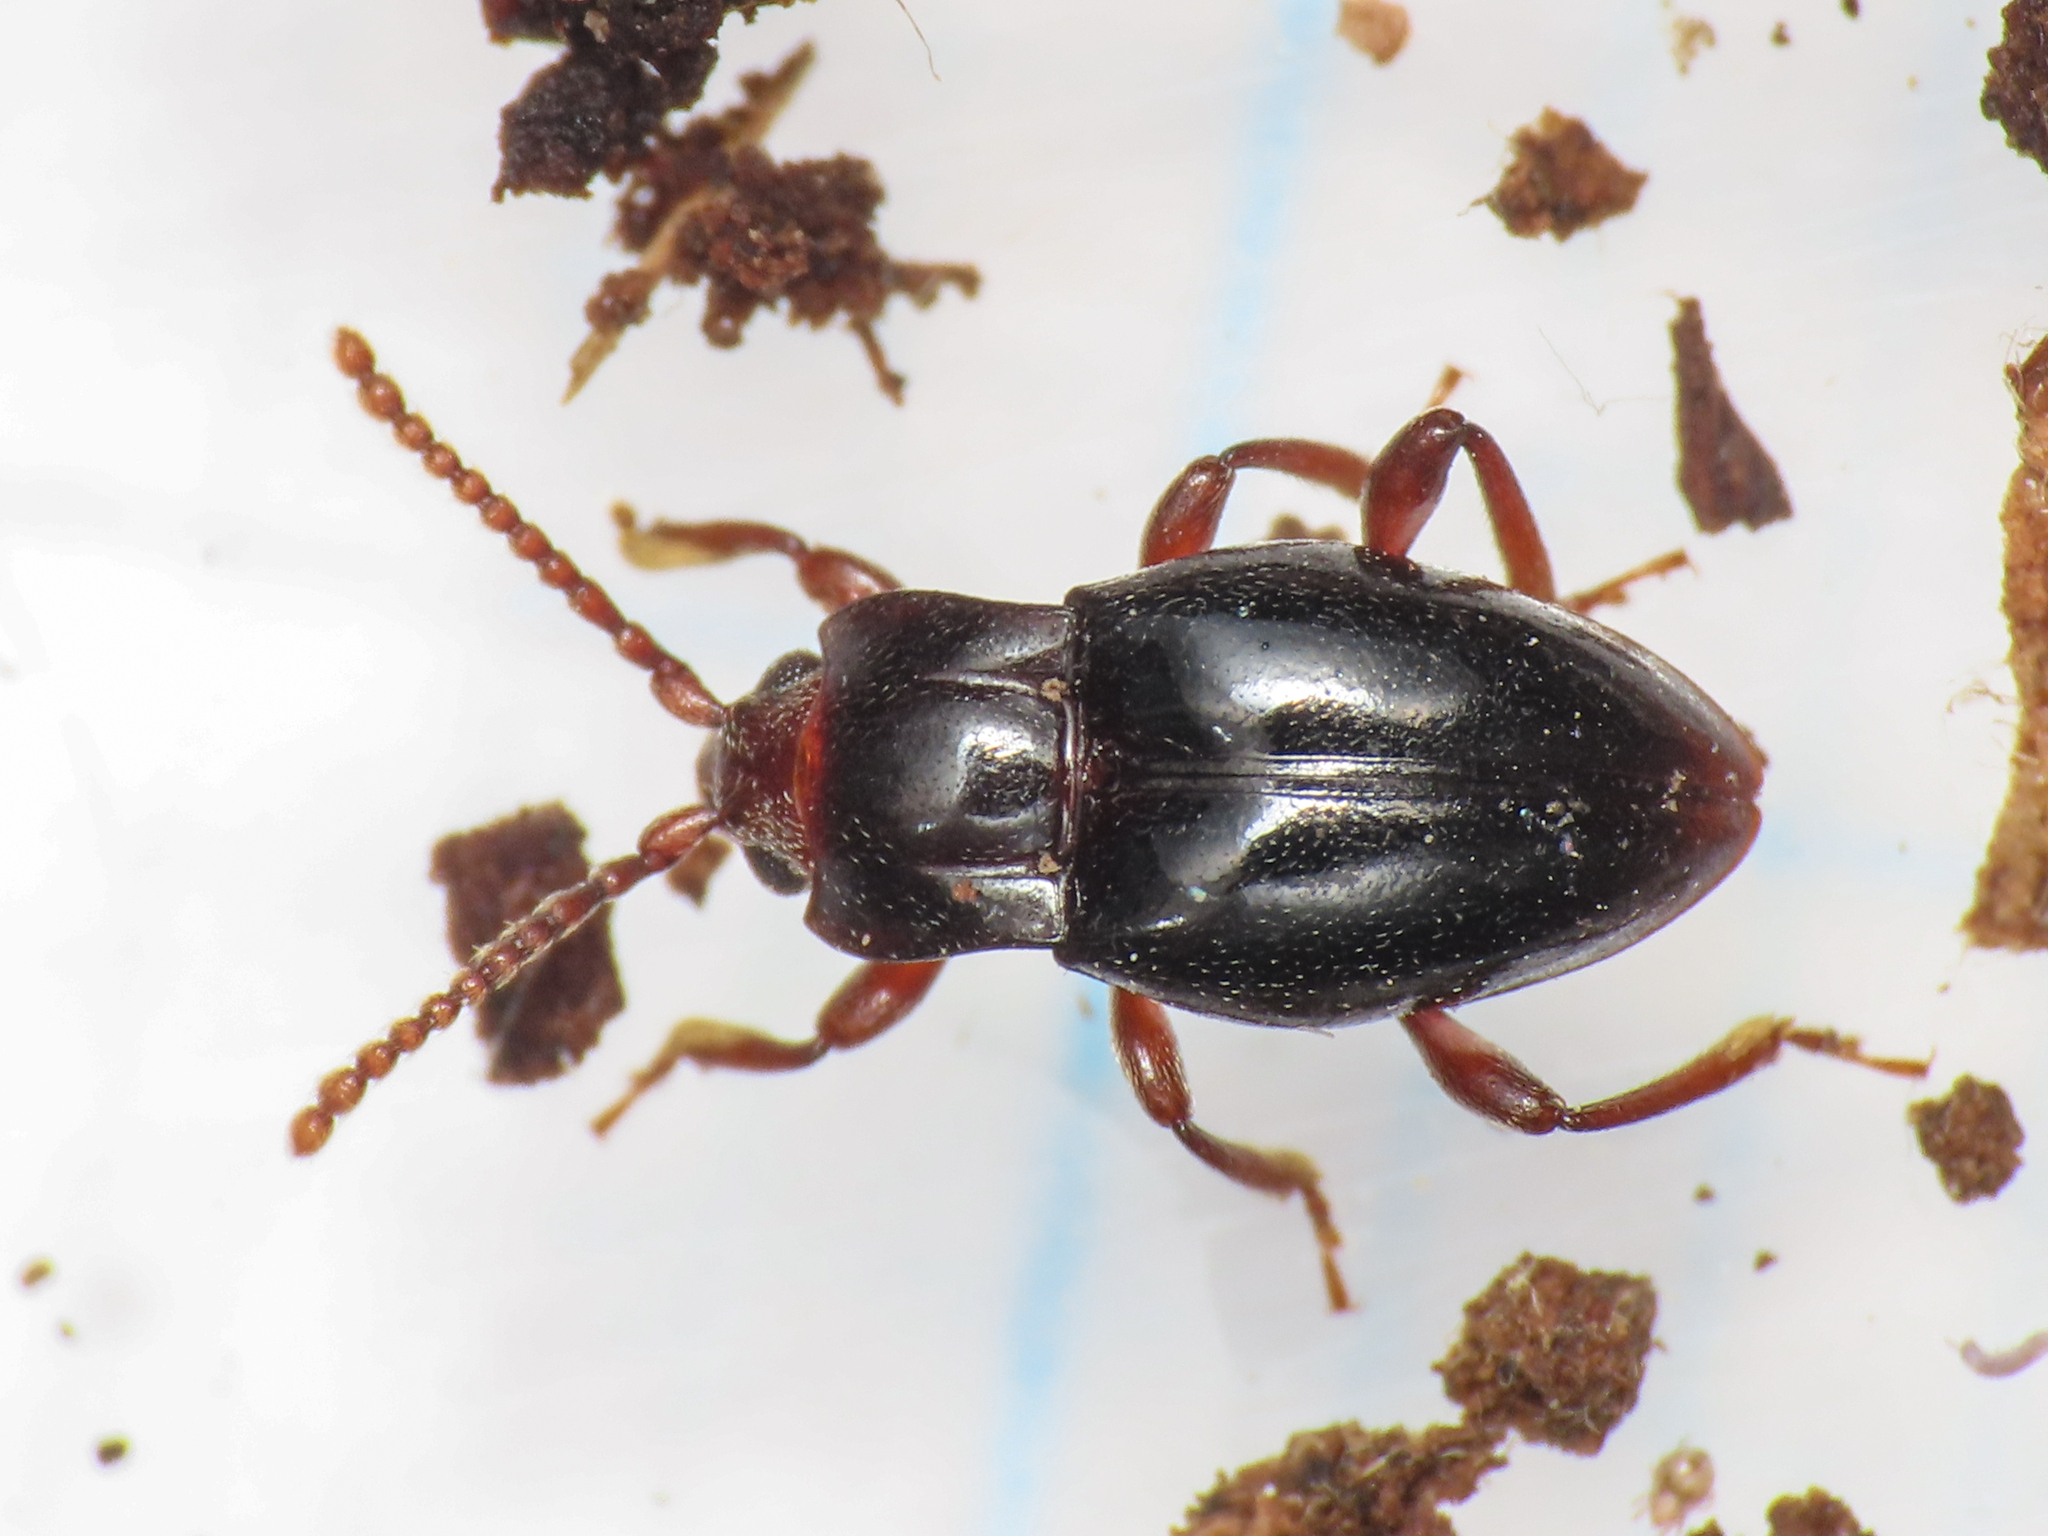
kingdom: Animalia
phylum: Arthropoda
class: Insecta
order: Coleoptera
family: Endomychidae
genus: Lycoperdina
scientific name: Lycoperdina bovistae
